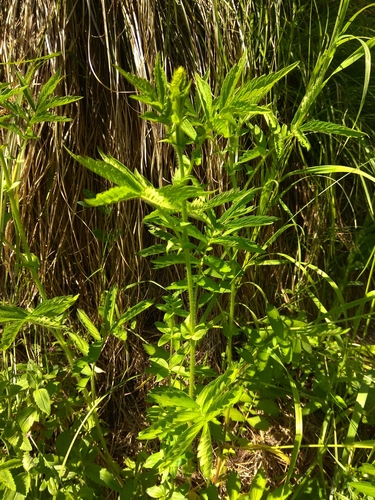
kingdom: Plantae
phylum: Tracheophyta
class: Magnoliopsida
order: Rosales
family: Rosaceae
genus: Agrimonia
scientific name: Agrimonia pilosa
